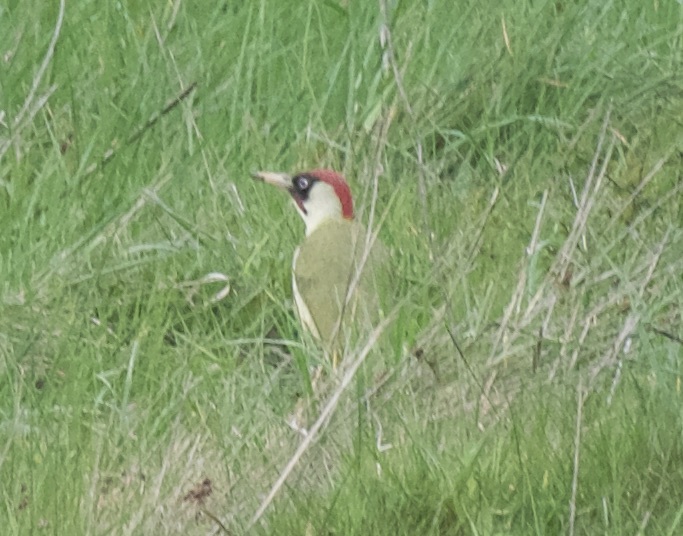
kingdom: Animalia
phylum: Chordata
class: Aves
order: Piciformes
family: Picidae
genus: Picus
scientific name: Picus viridis
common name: European green woodpecker
